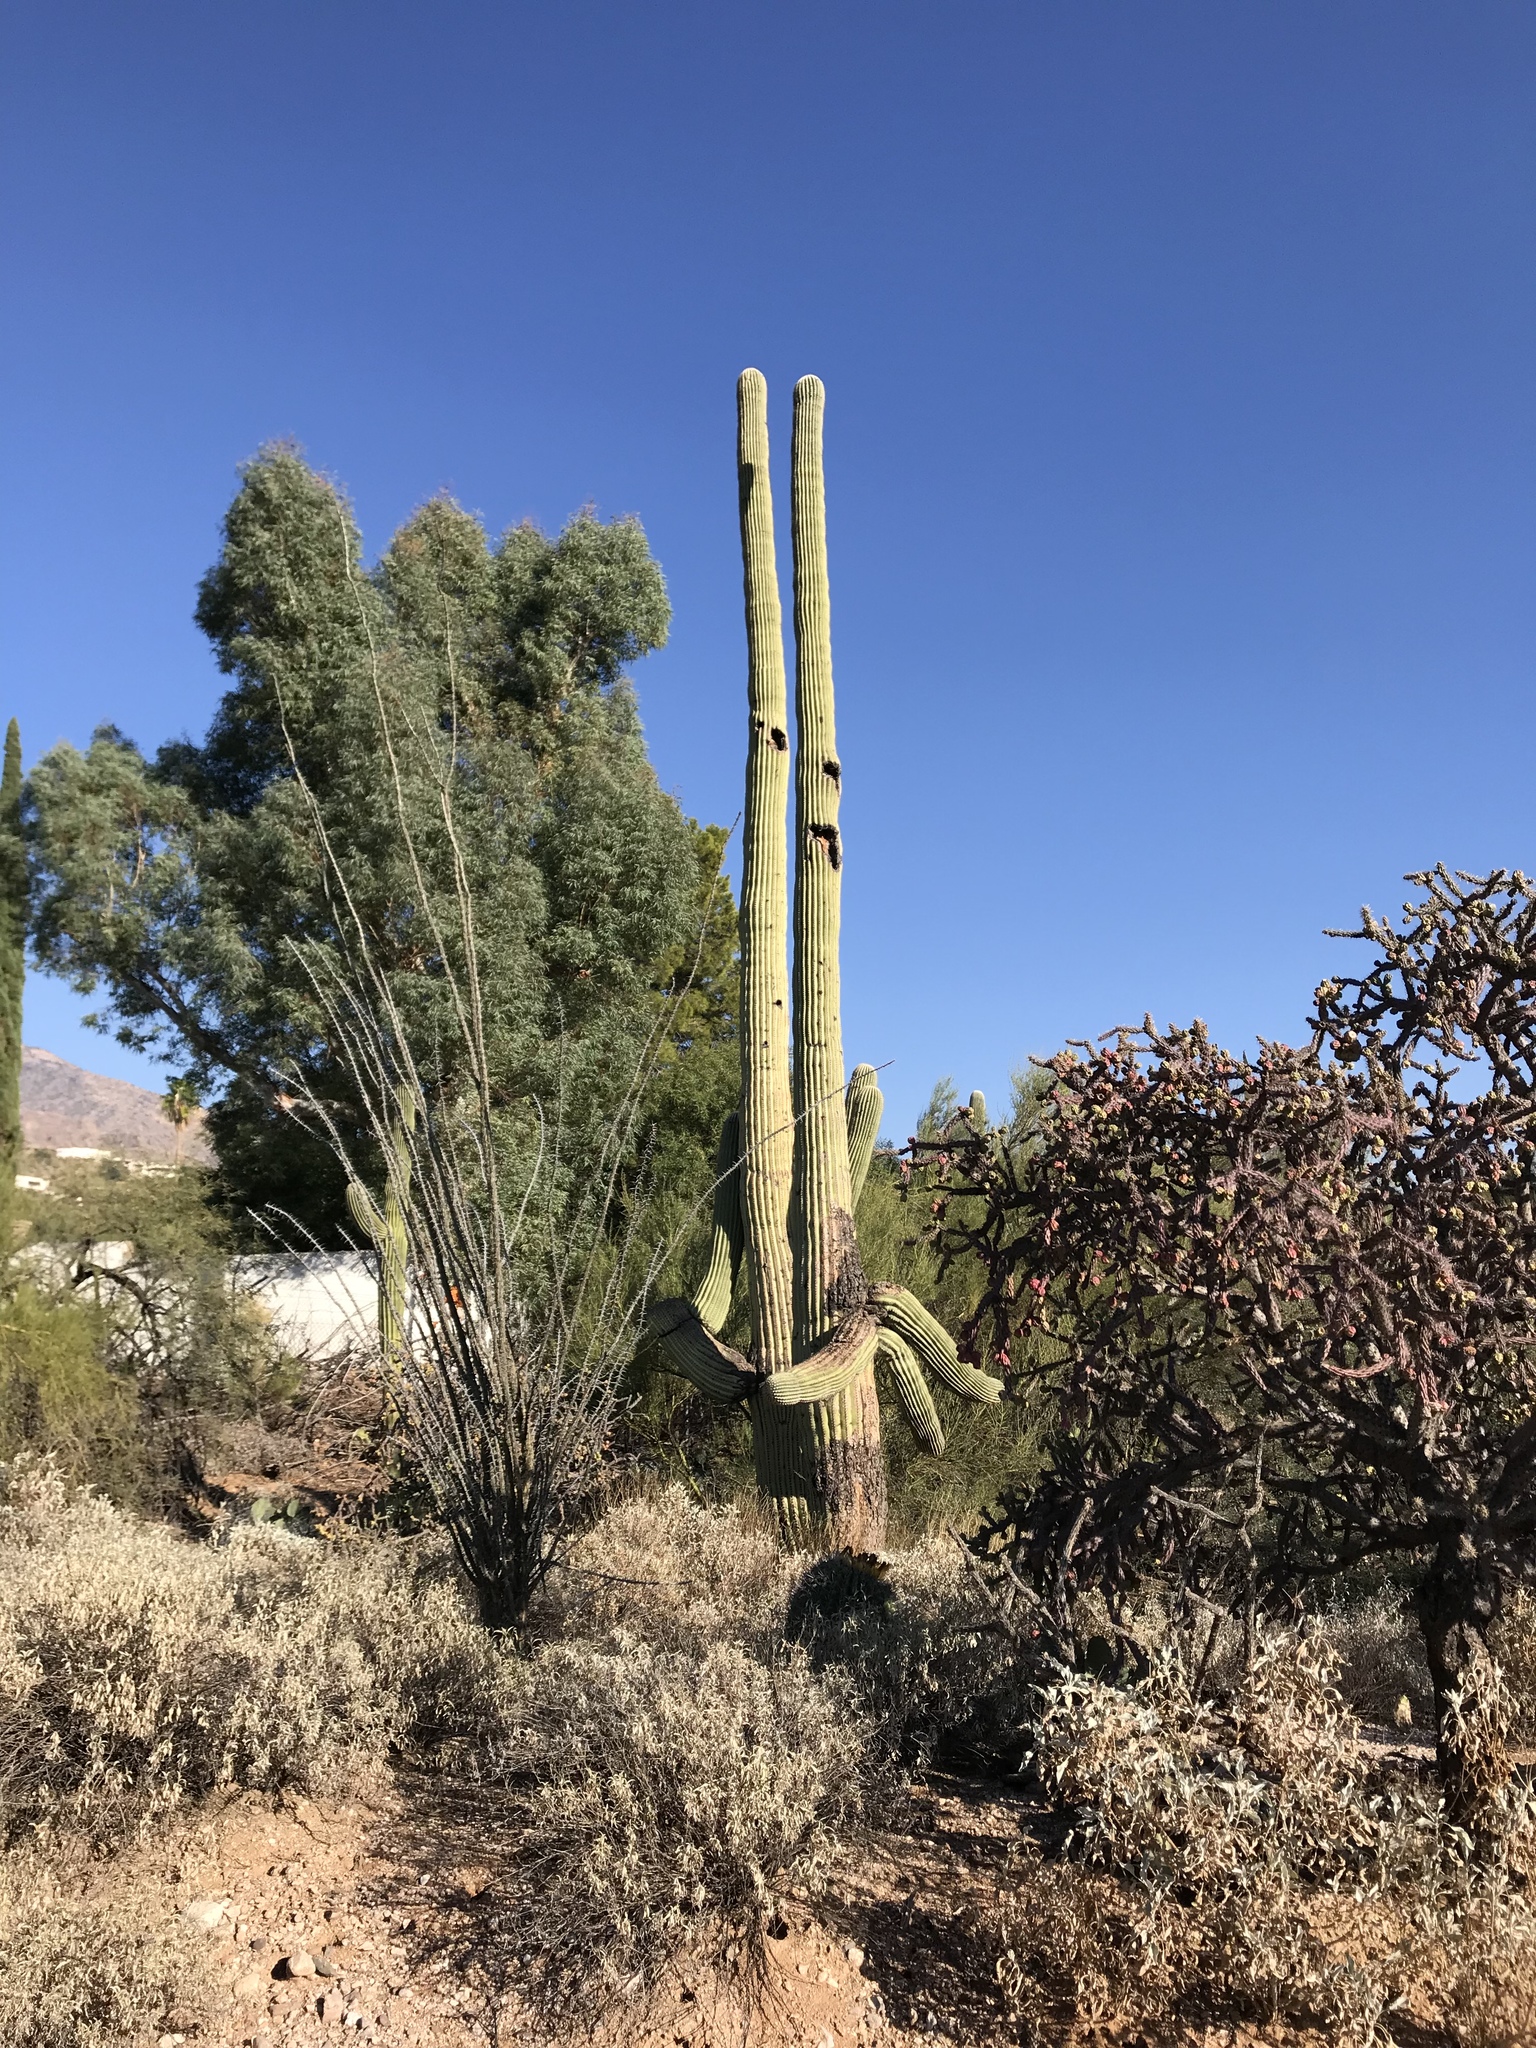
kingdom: Plantae
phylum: Tracheophyta
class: Magnoliopsida
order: Caryophyllales
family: Cactaceae
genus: Cylindropuntia
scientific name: Cylindropuntia thurberi
